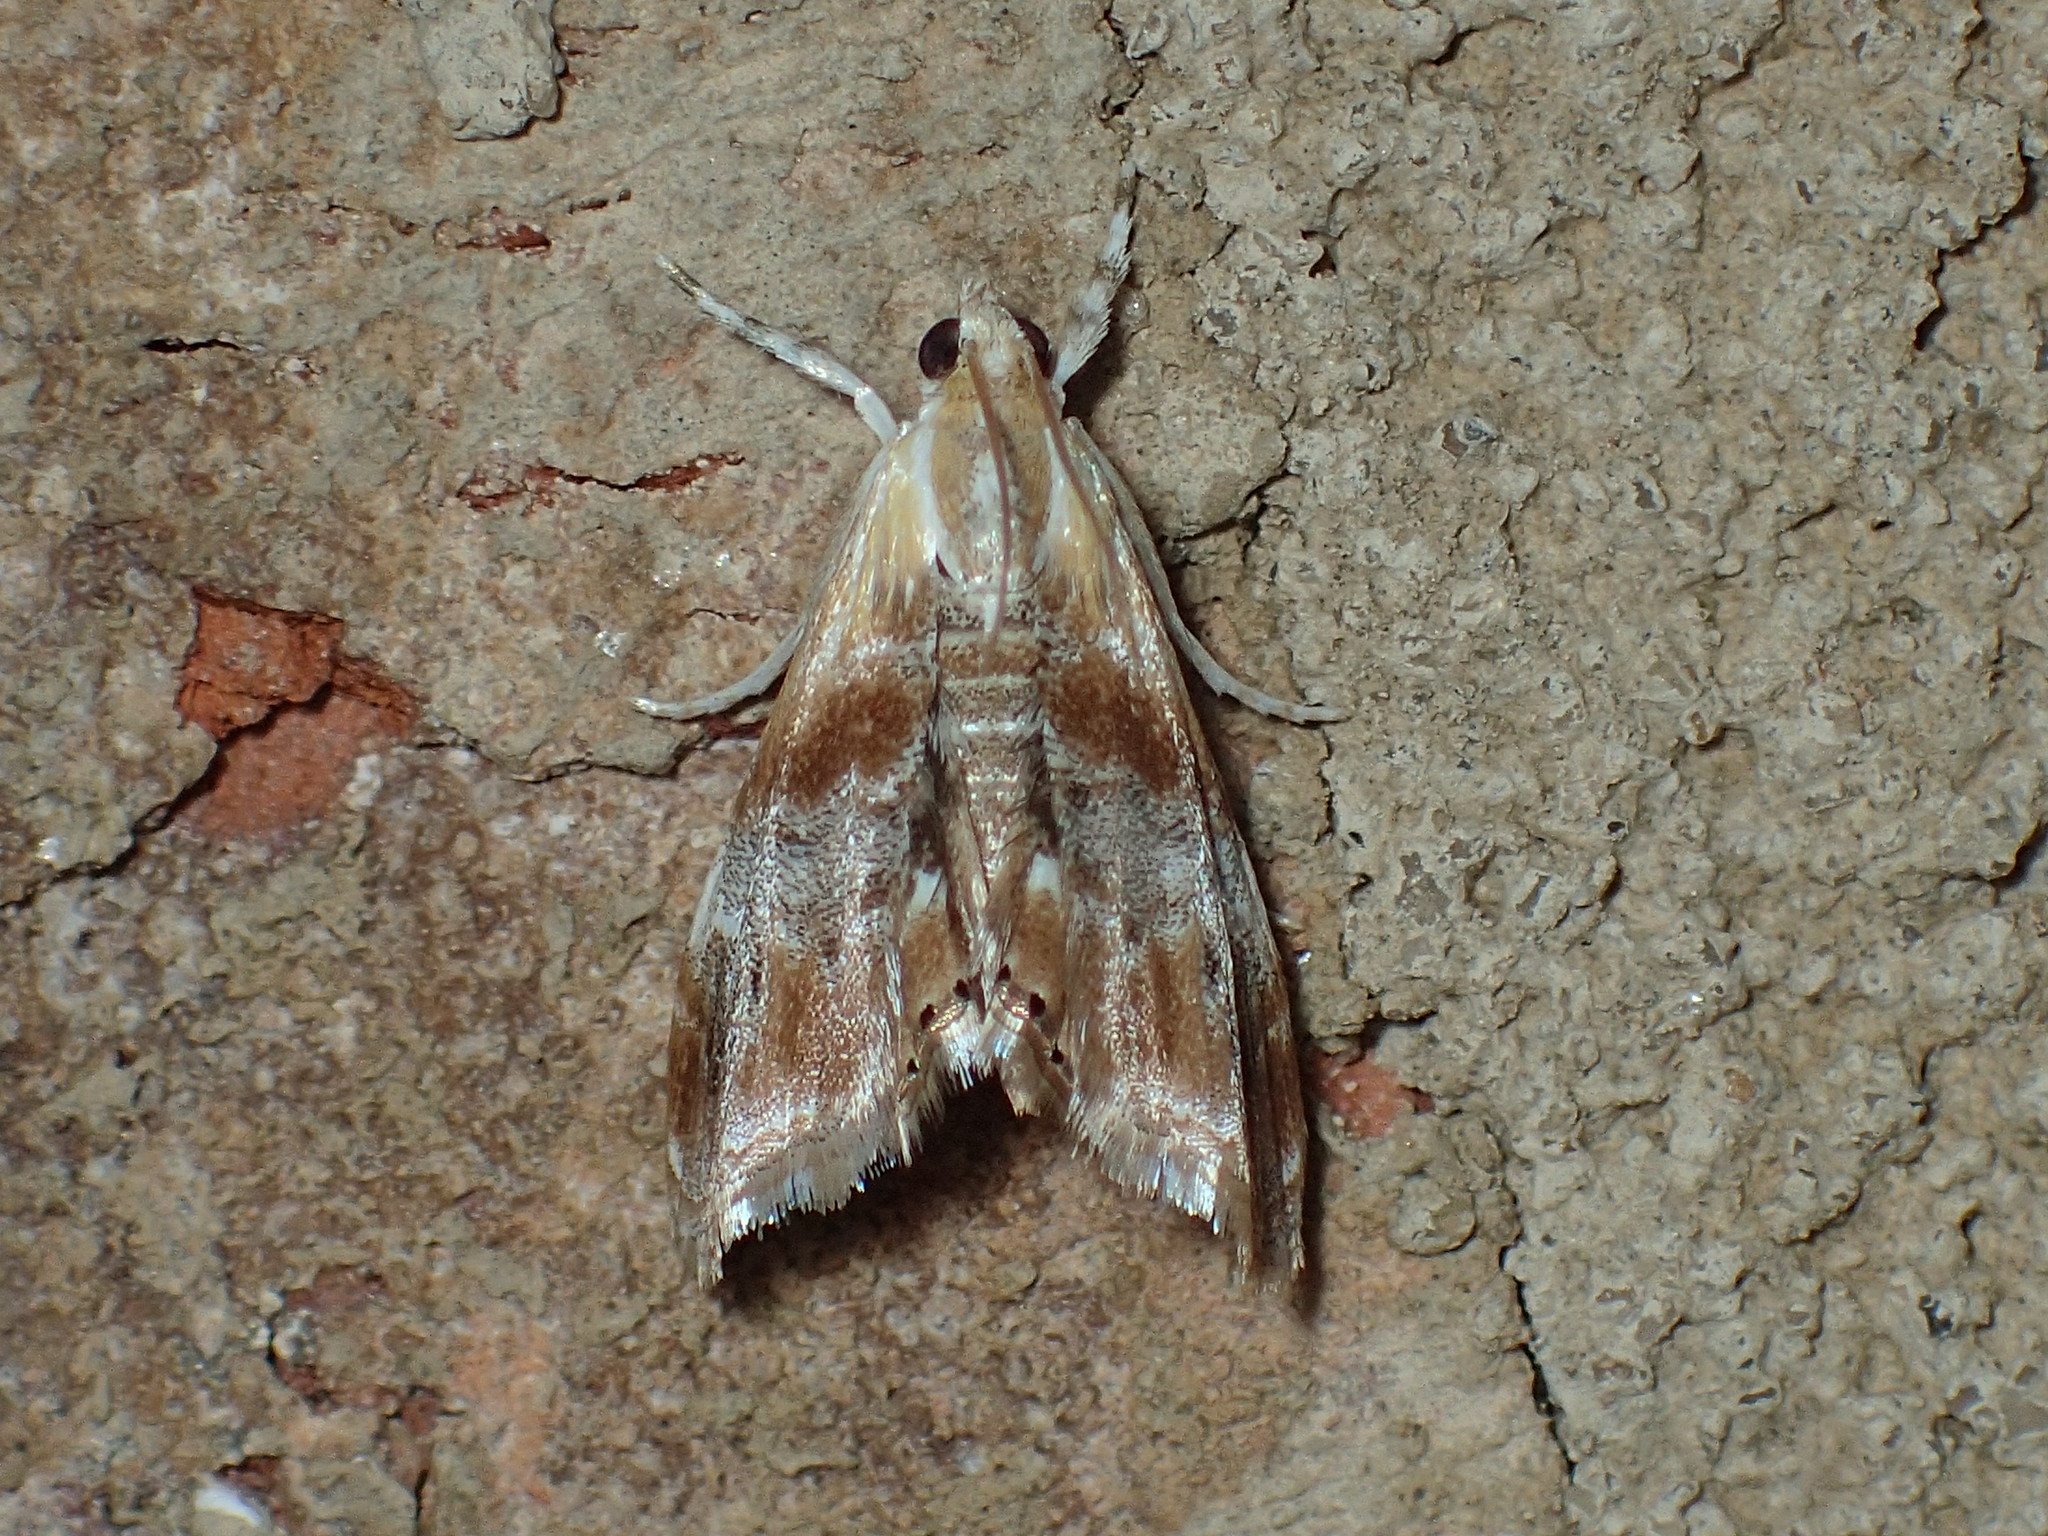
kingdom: Animalia
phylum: Arthropoda
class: Insecta
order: Lepidoptera
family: Crambidae
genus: Dicymolomia
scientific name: Dicymolomia julianalis
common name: Julia's dicymolomia moth
